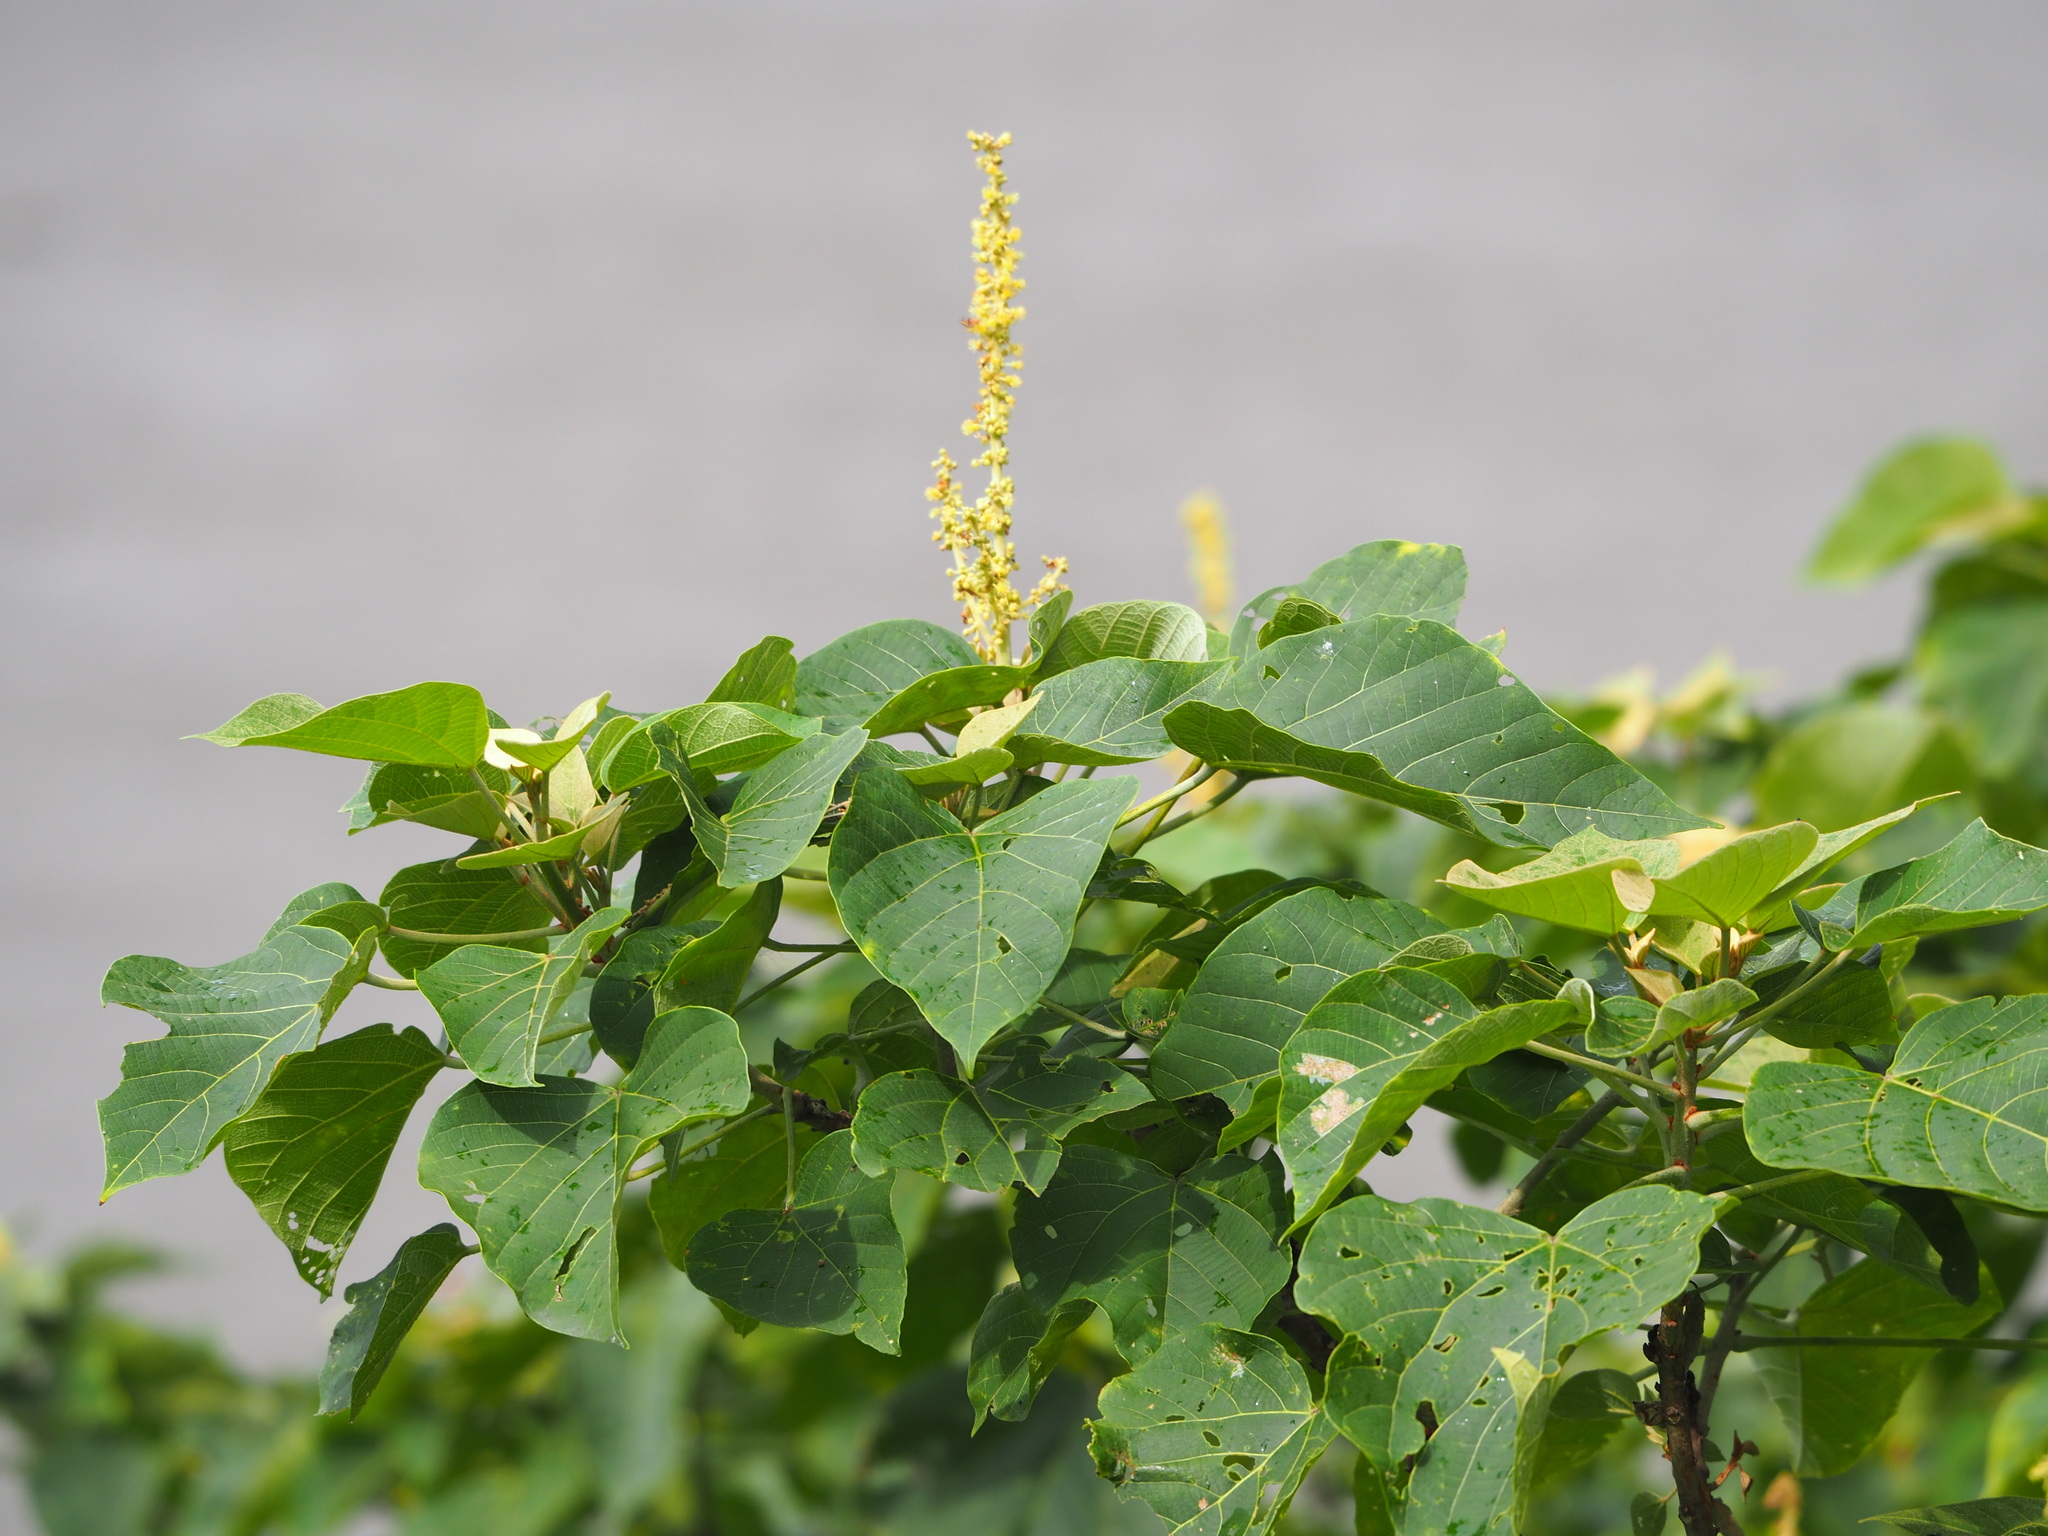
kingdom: Plantae
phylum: Tracheophyta
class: Magnoliopsida
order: Malpighiales
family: Euphorbiaceae
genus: Mallotus
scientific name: Mallotus japonicus
